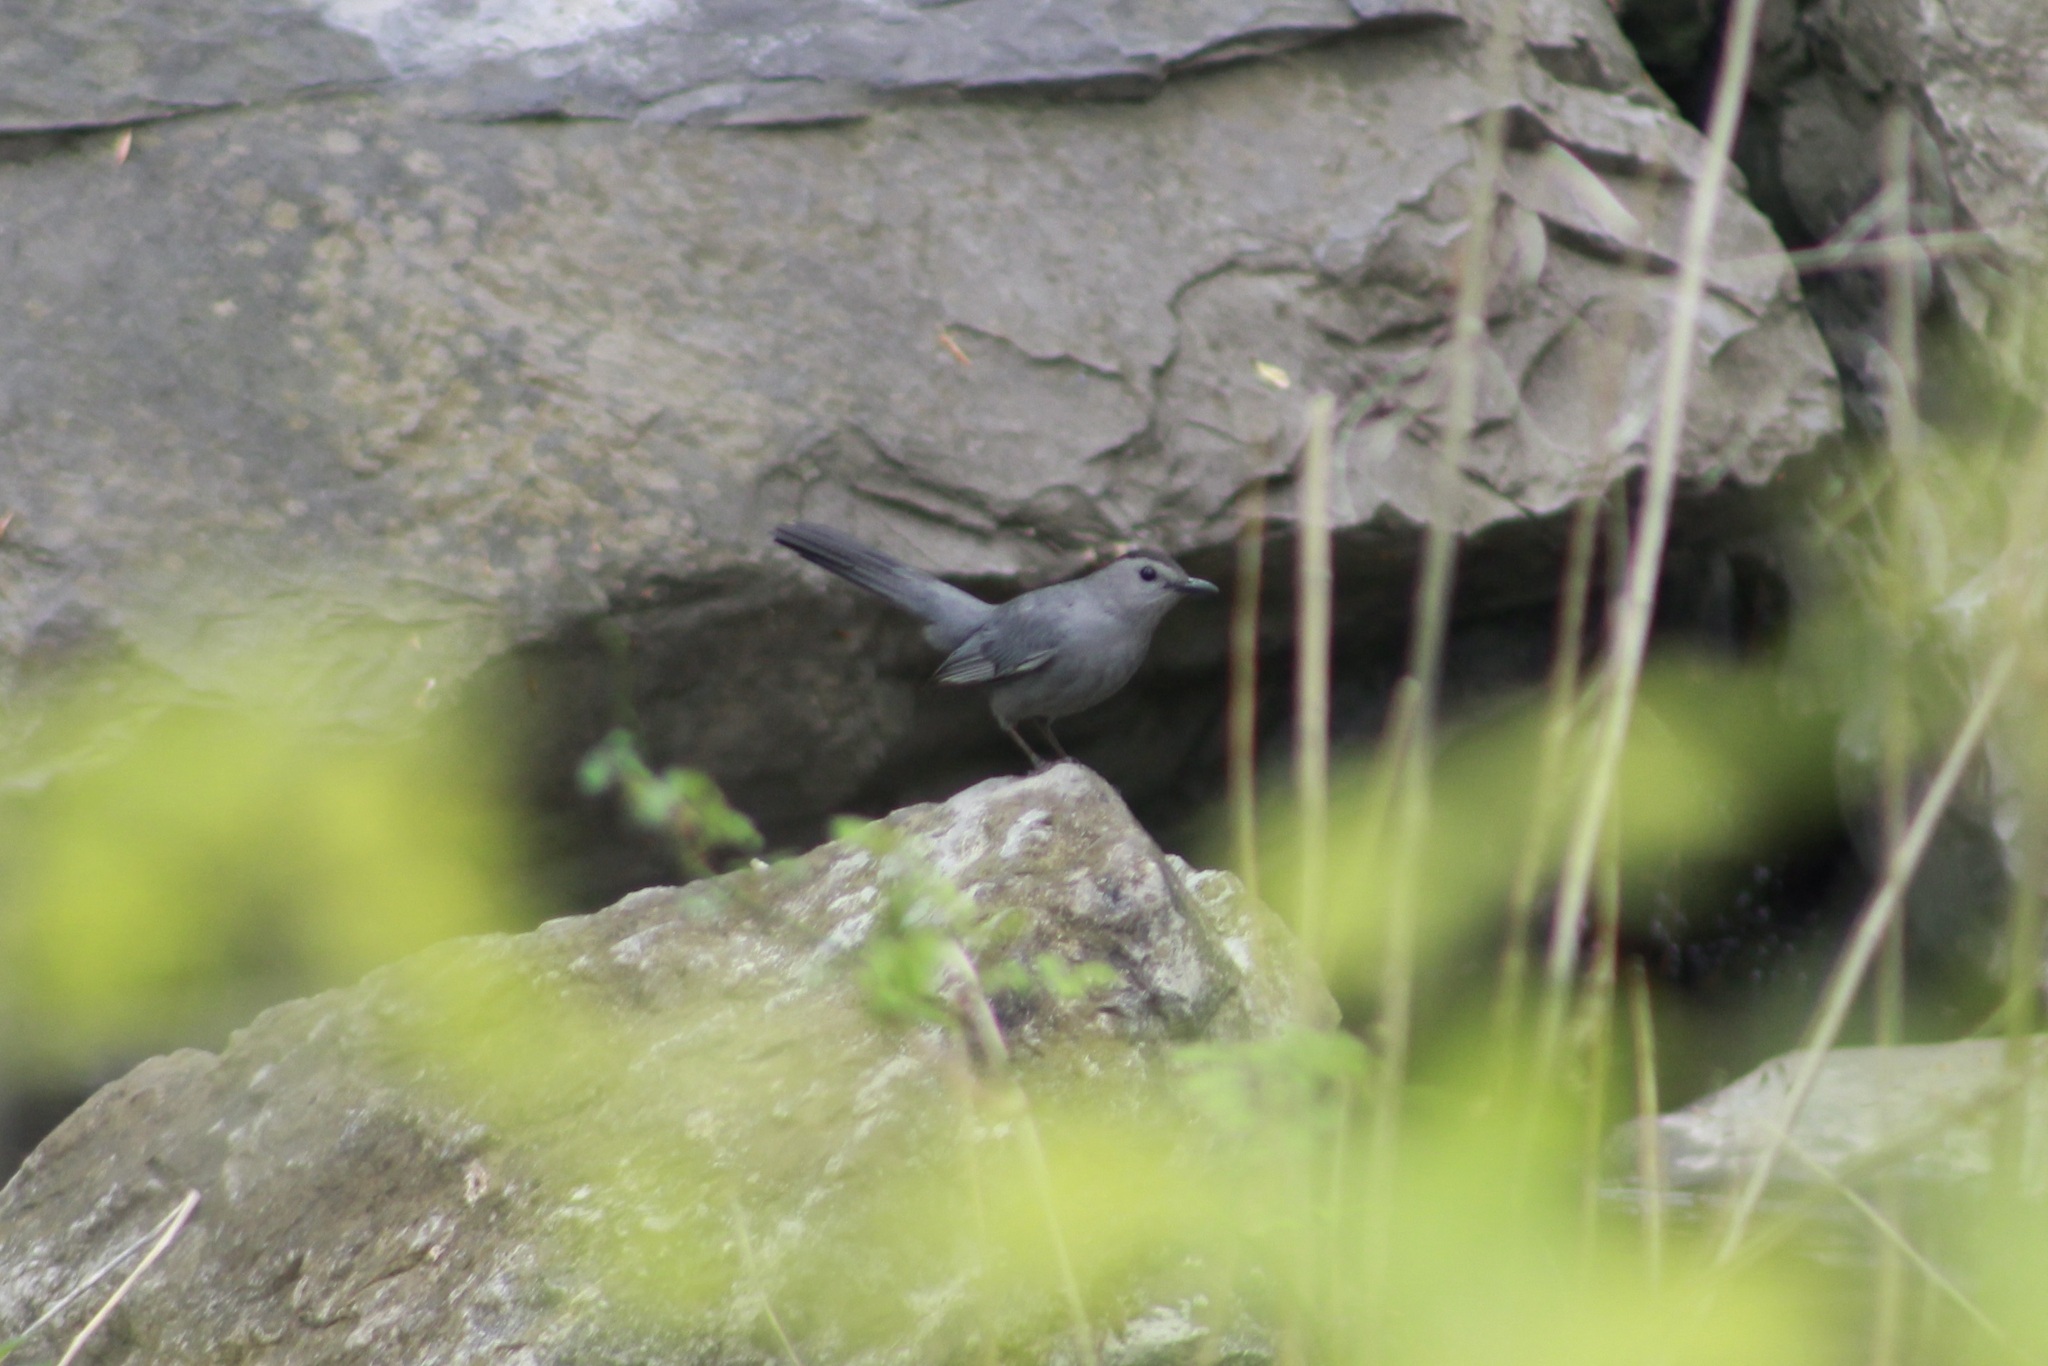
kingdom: Animalia
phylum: Chordata
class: Aves
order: Passeriformes
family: Mimidae
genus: Dumetella
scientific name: Dumetella carolinensis
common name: Gray catbird
